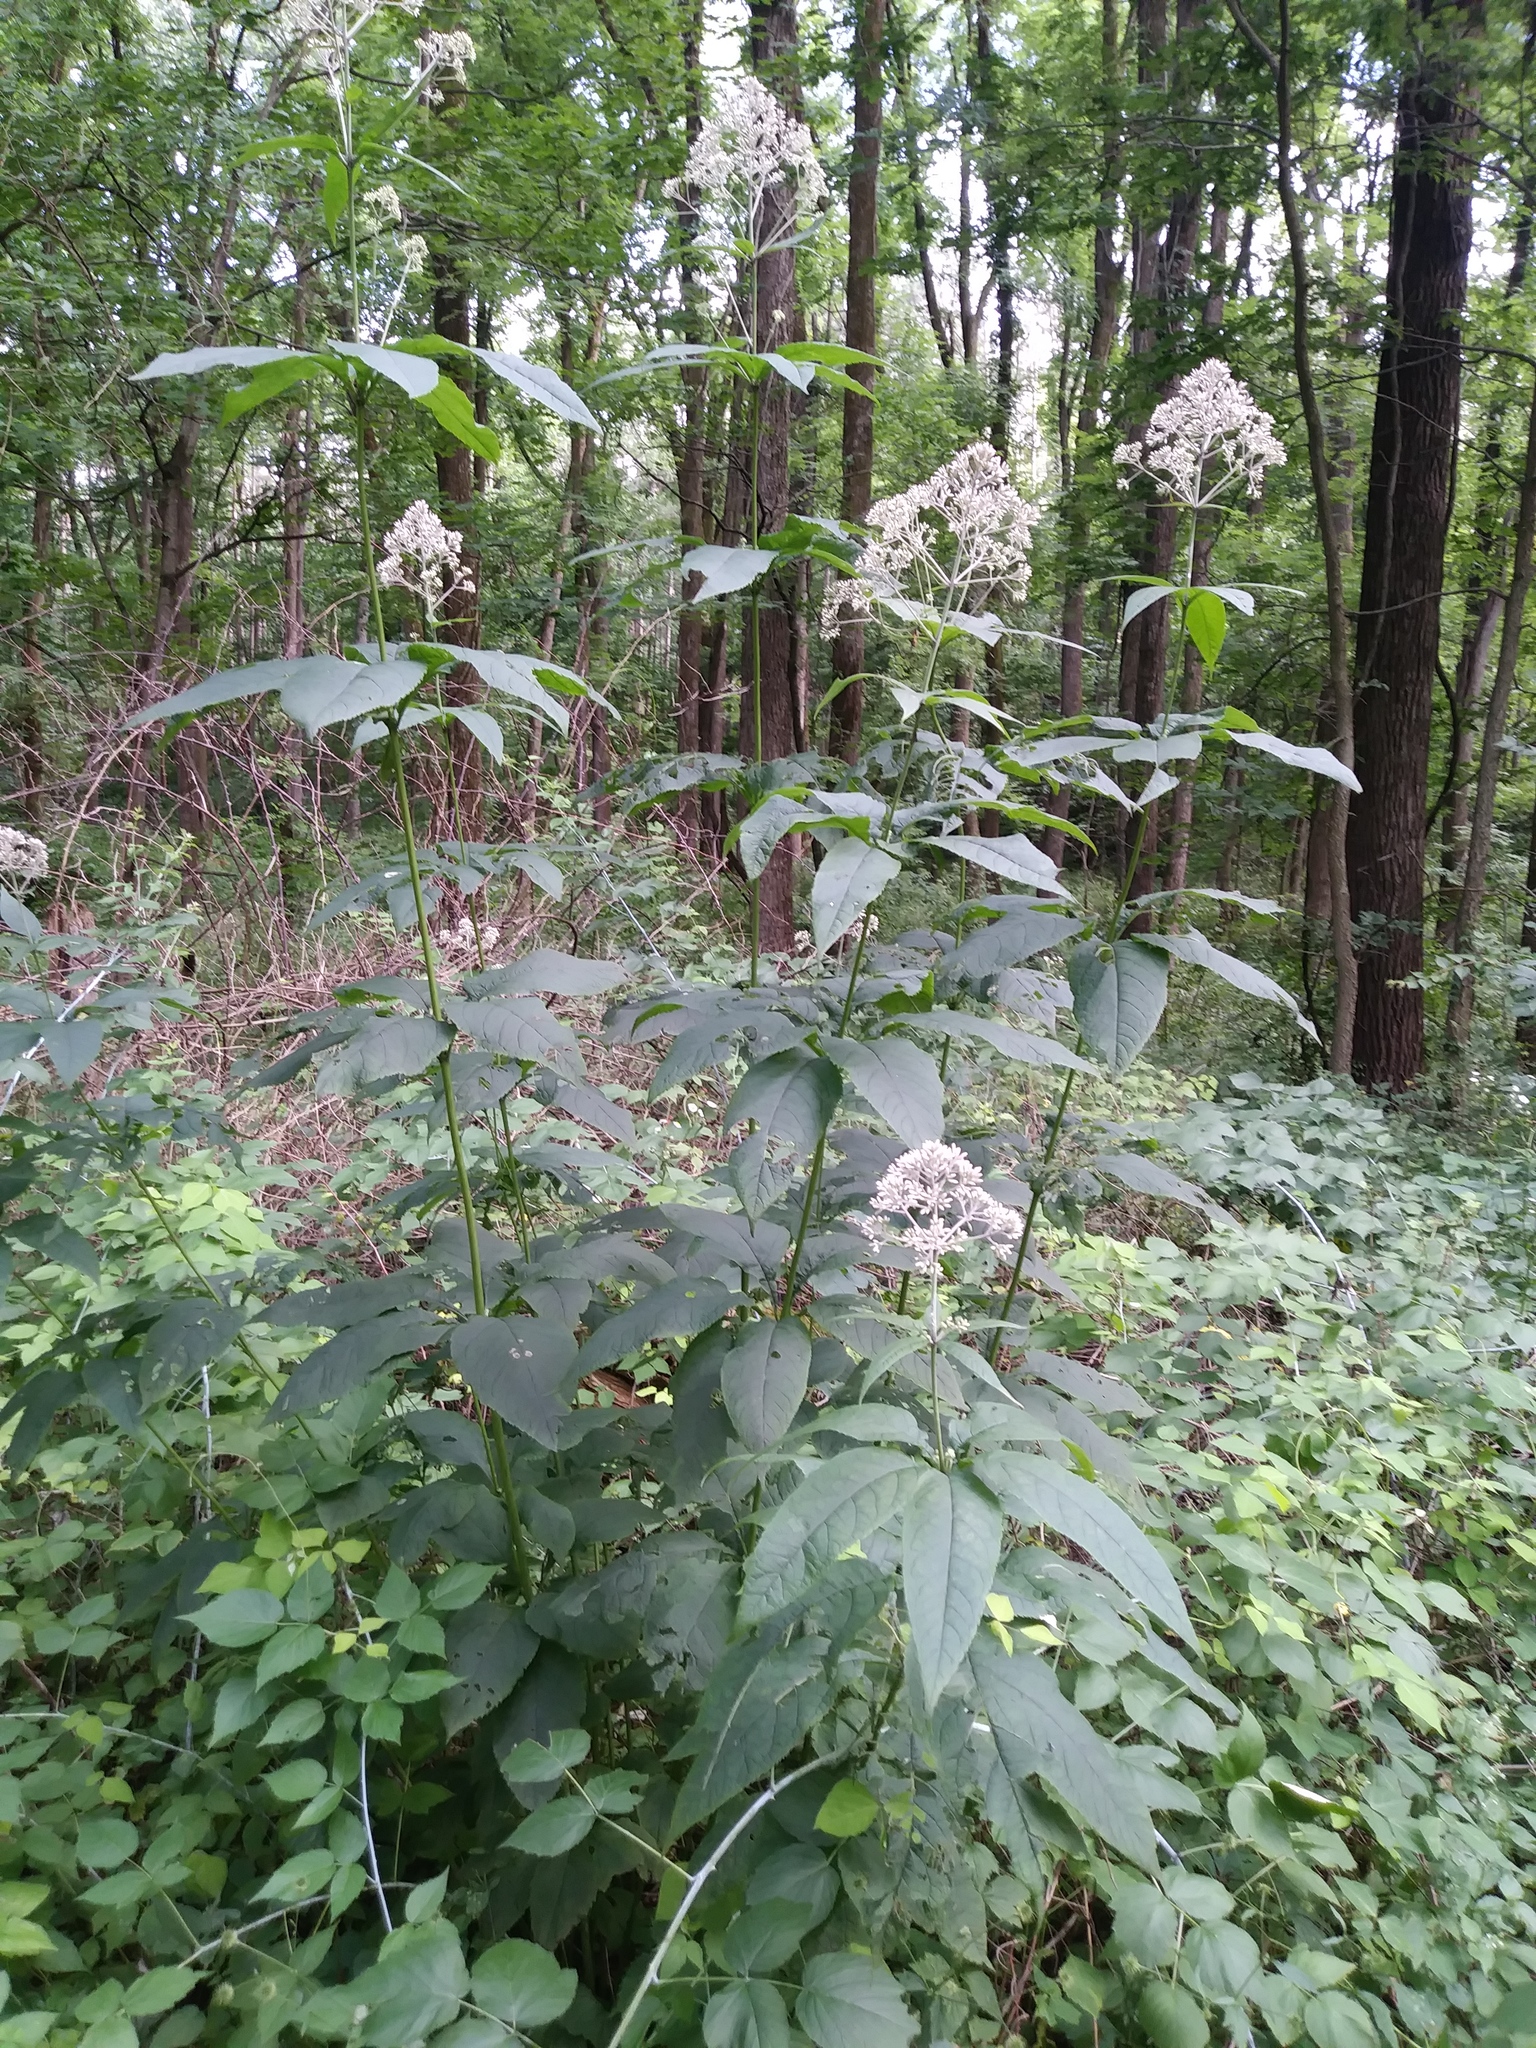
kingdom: Plantae
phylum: Tracheophyta
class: Magnoliopsida
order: Asterales
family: Asteraceae
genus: Eutrochium
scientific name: Eutrochium purpureum
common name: Gravelroot
